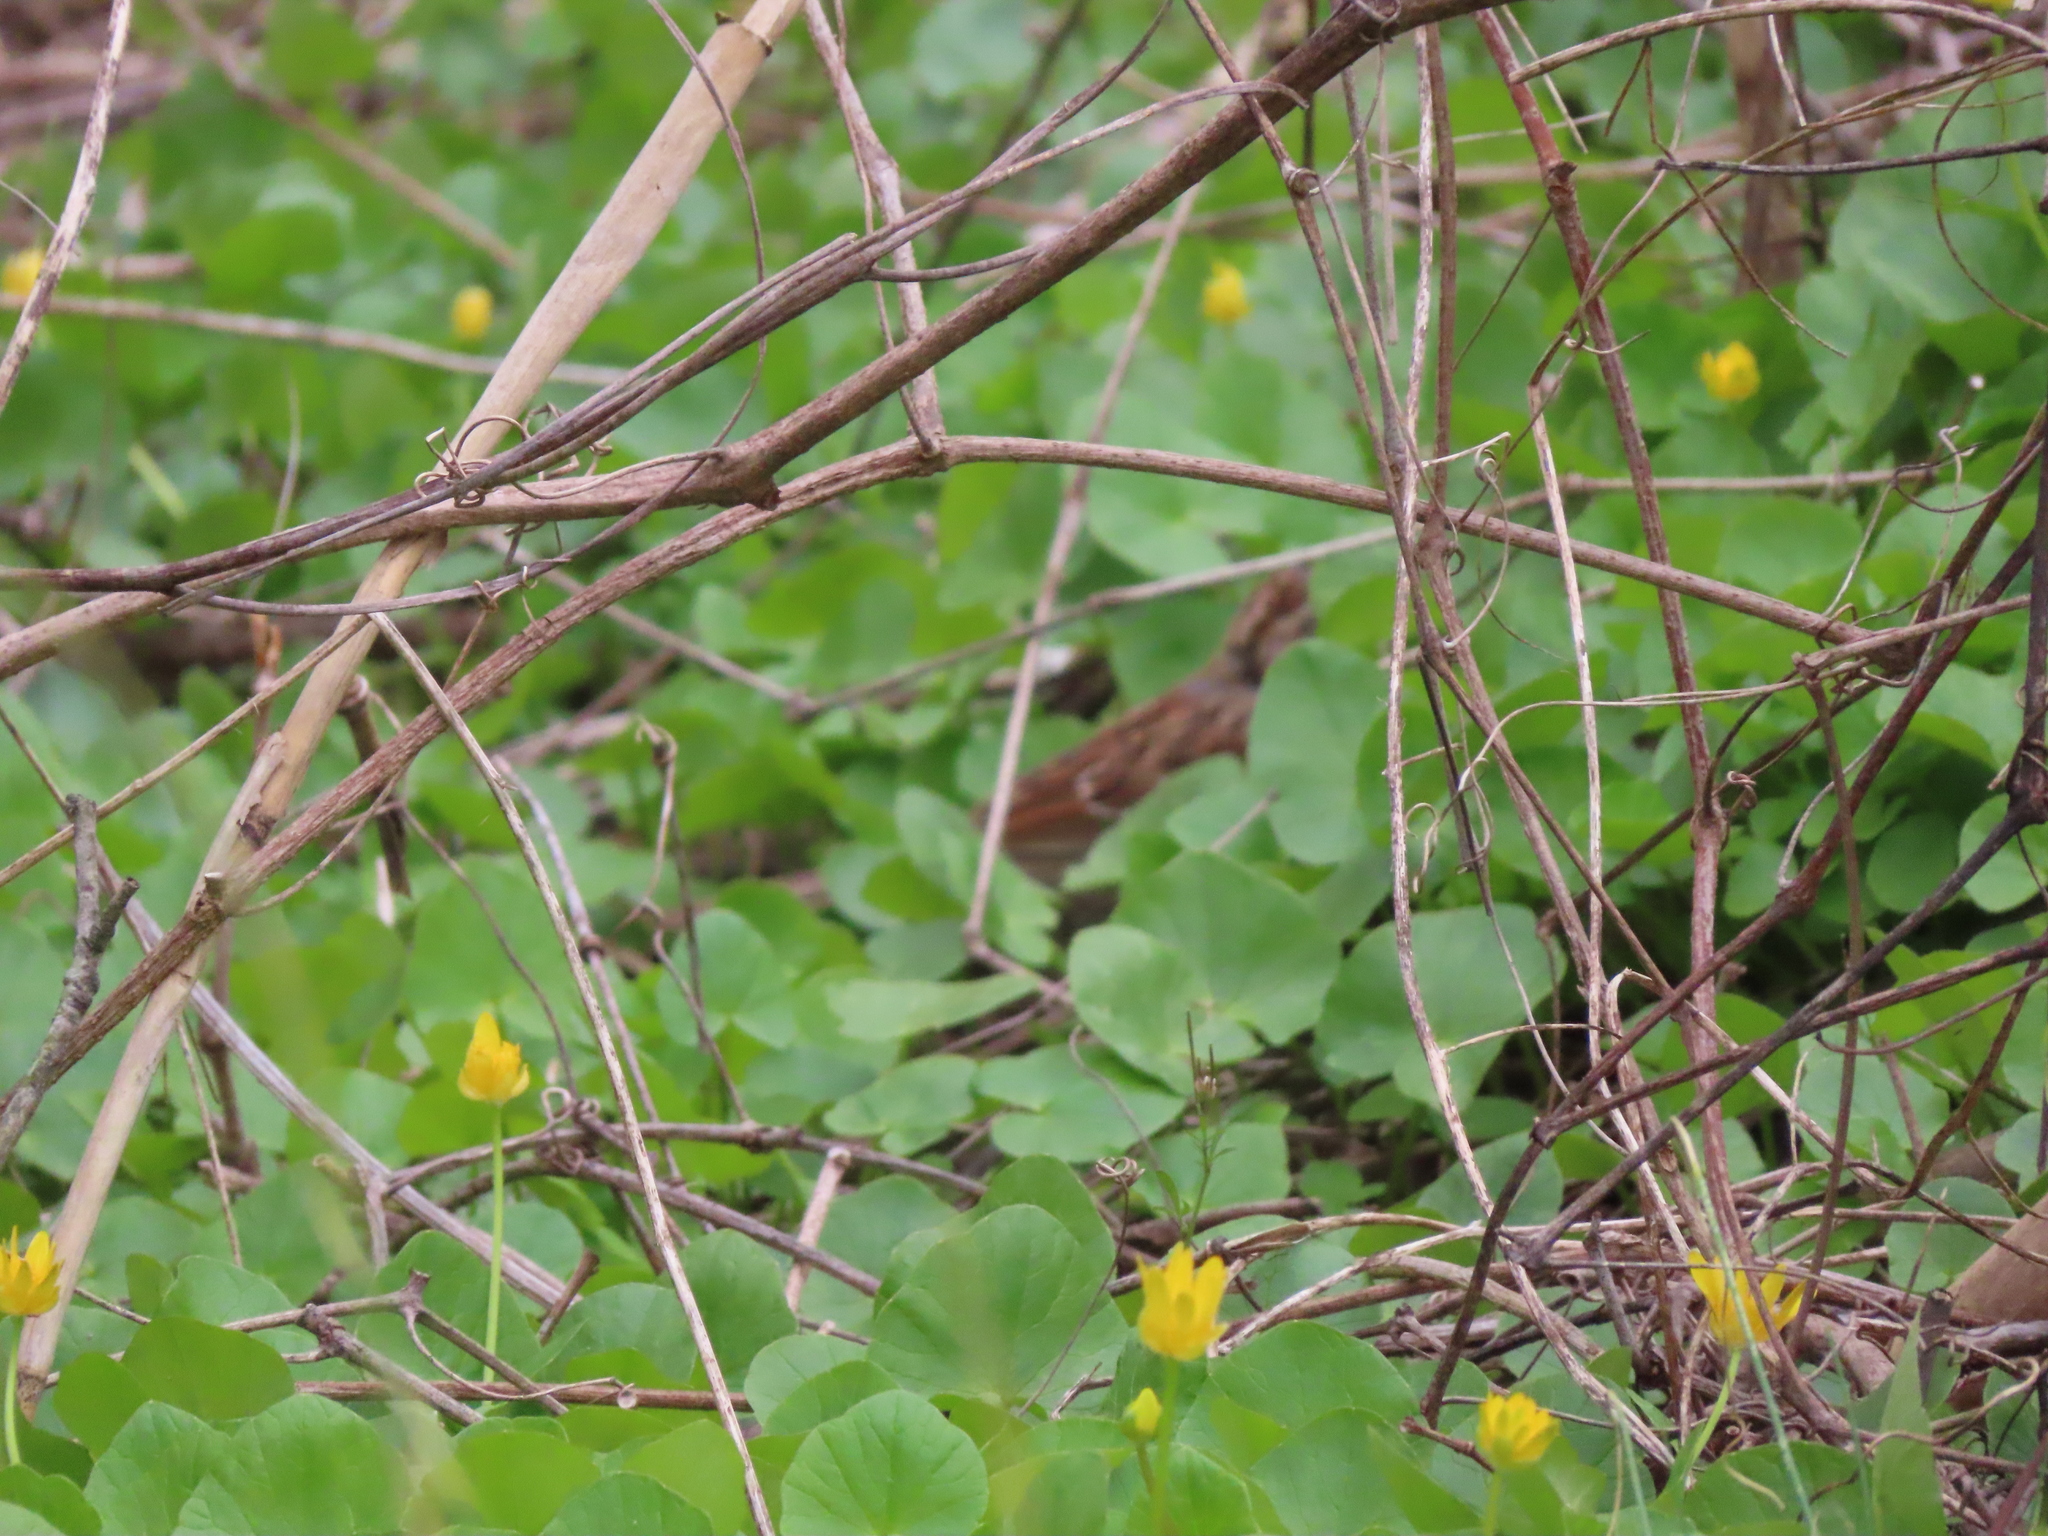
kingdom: Animalia
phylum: Chordata
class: Aves
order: Passeriformes
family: Passerellidae
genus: Zonotrichia
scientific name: Zonotrichia albicollis
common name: White-throated sparrow
